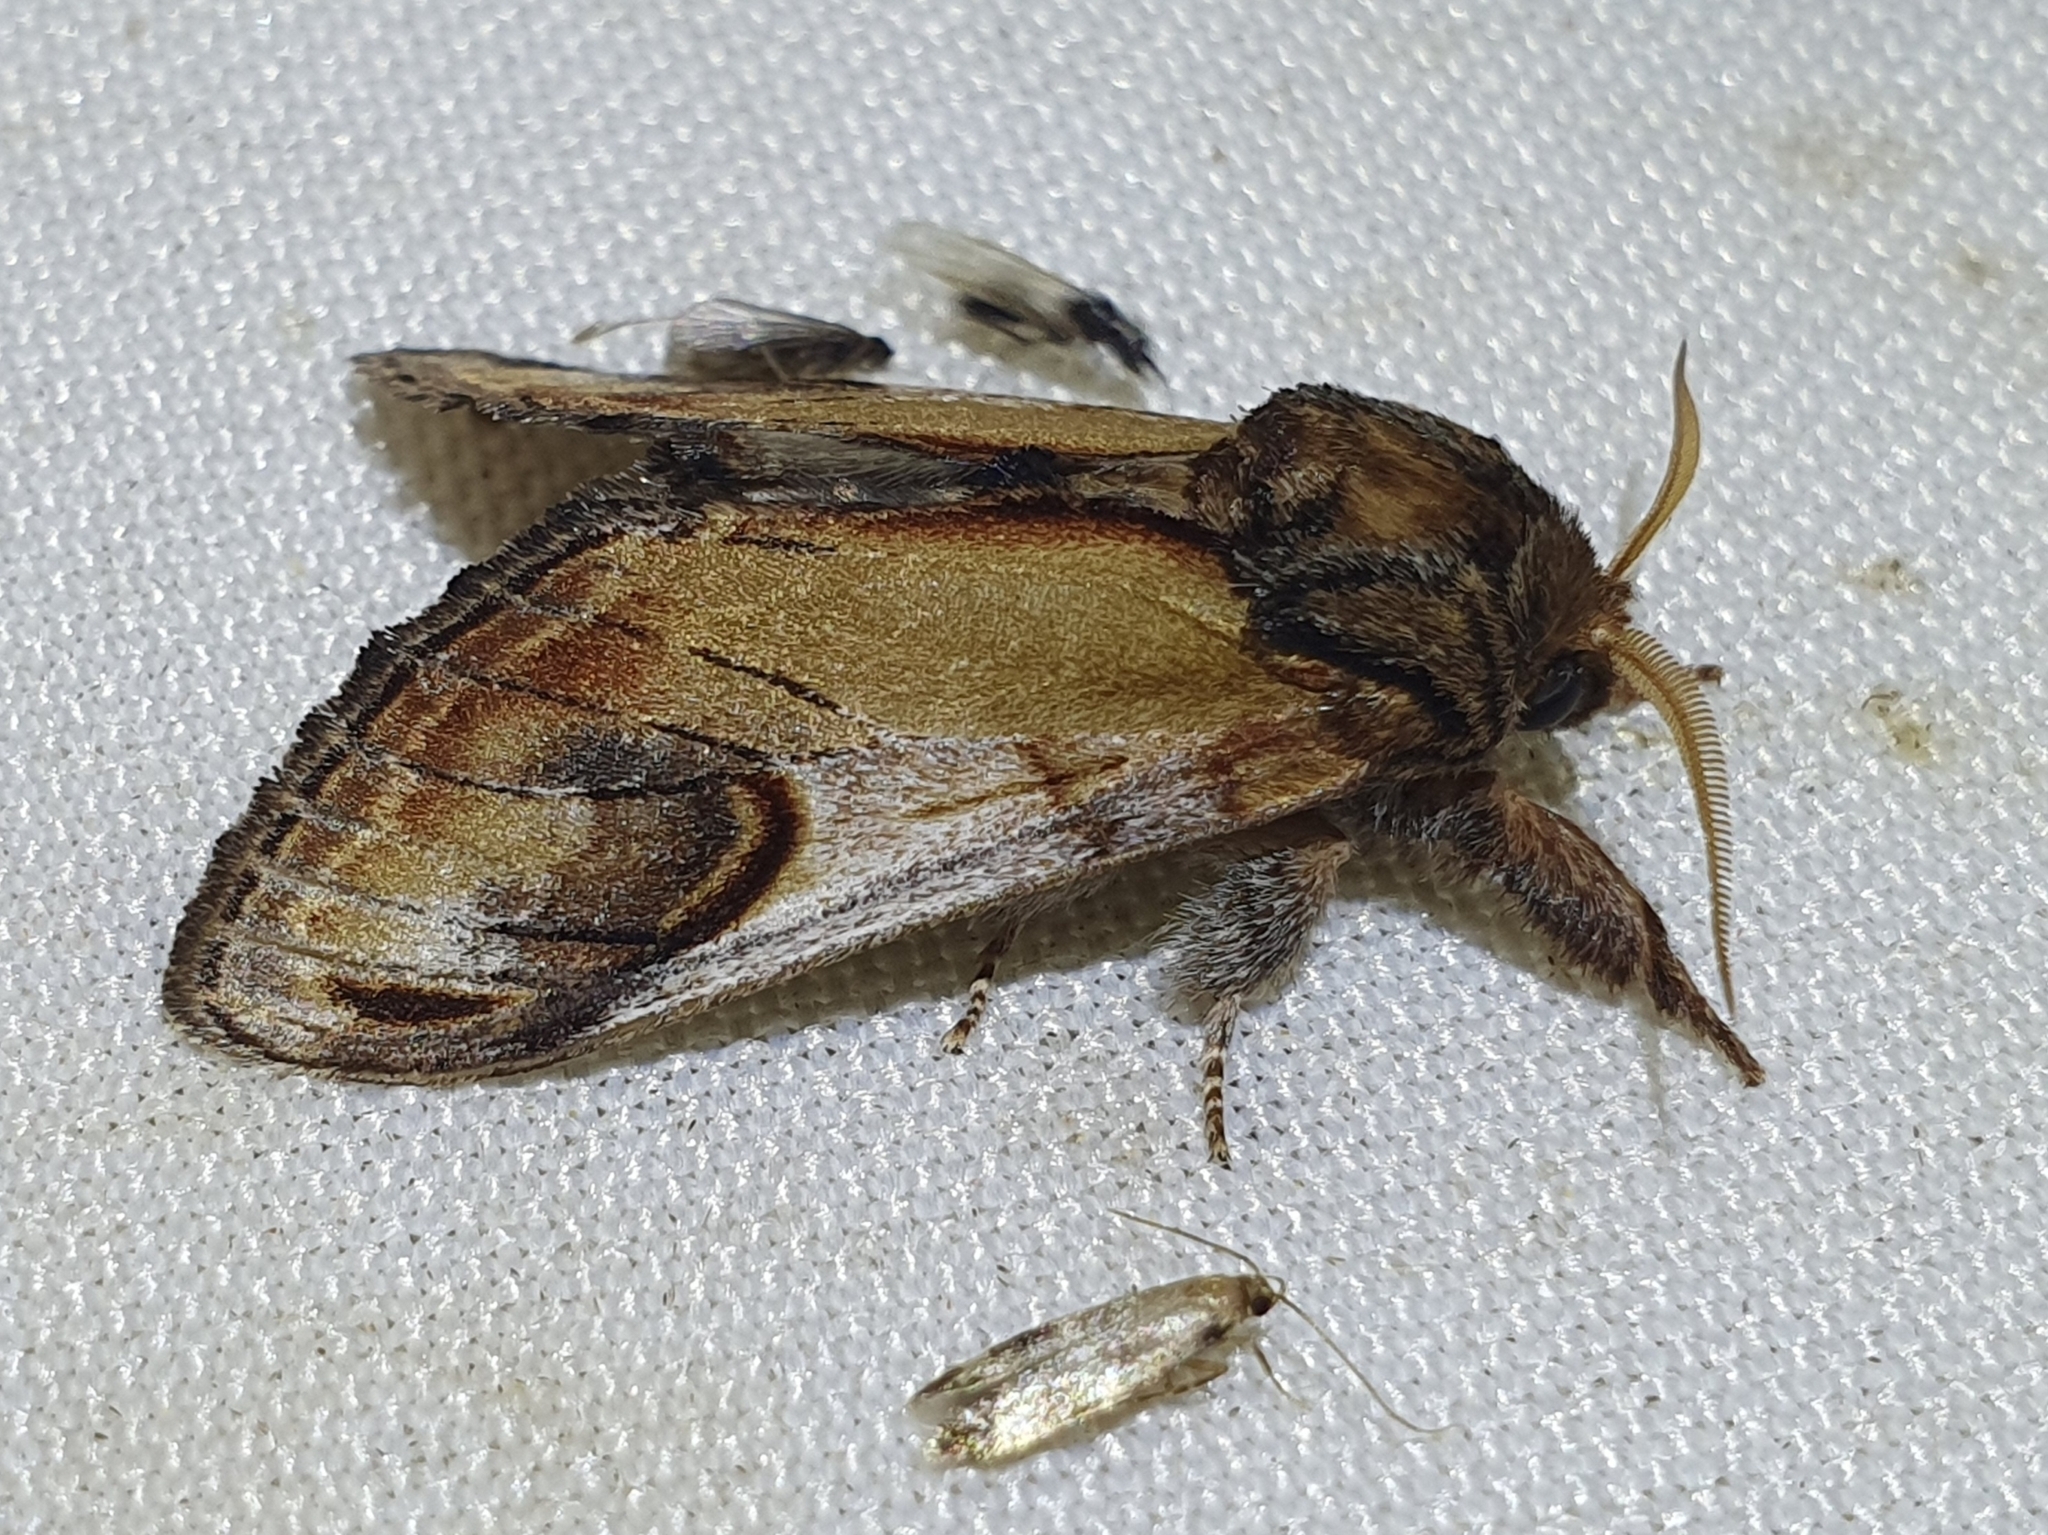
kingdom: Animalia
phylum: Arthropoda
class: Insecta
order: Lepidoptera
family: Notodontidae
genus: Notodonta
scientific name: Notodonta ziczac
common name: Pebble prominent
